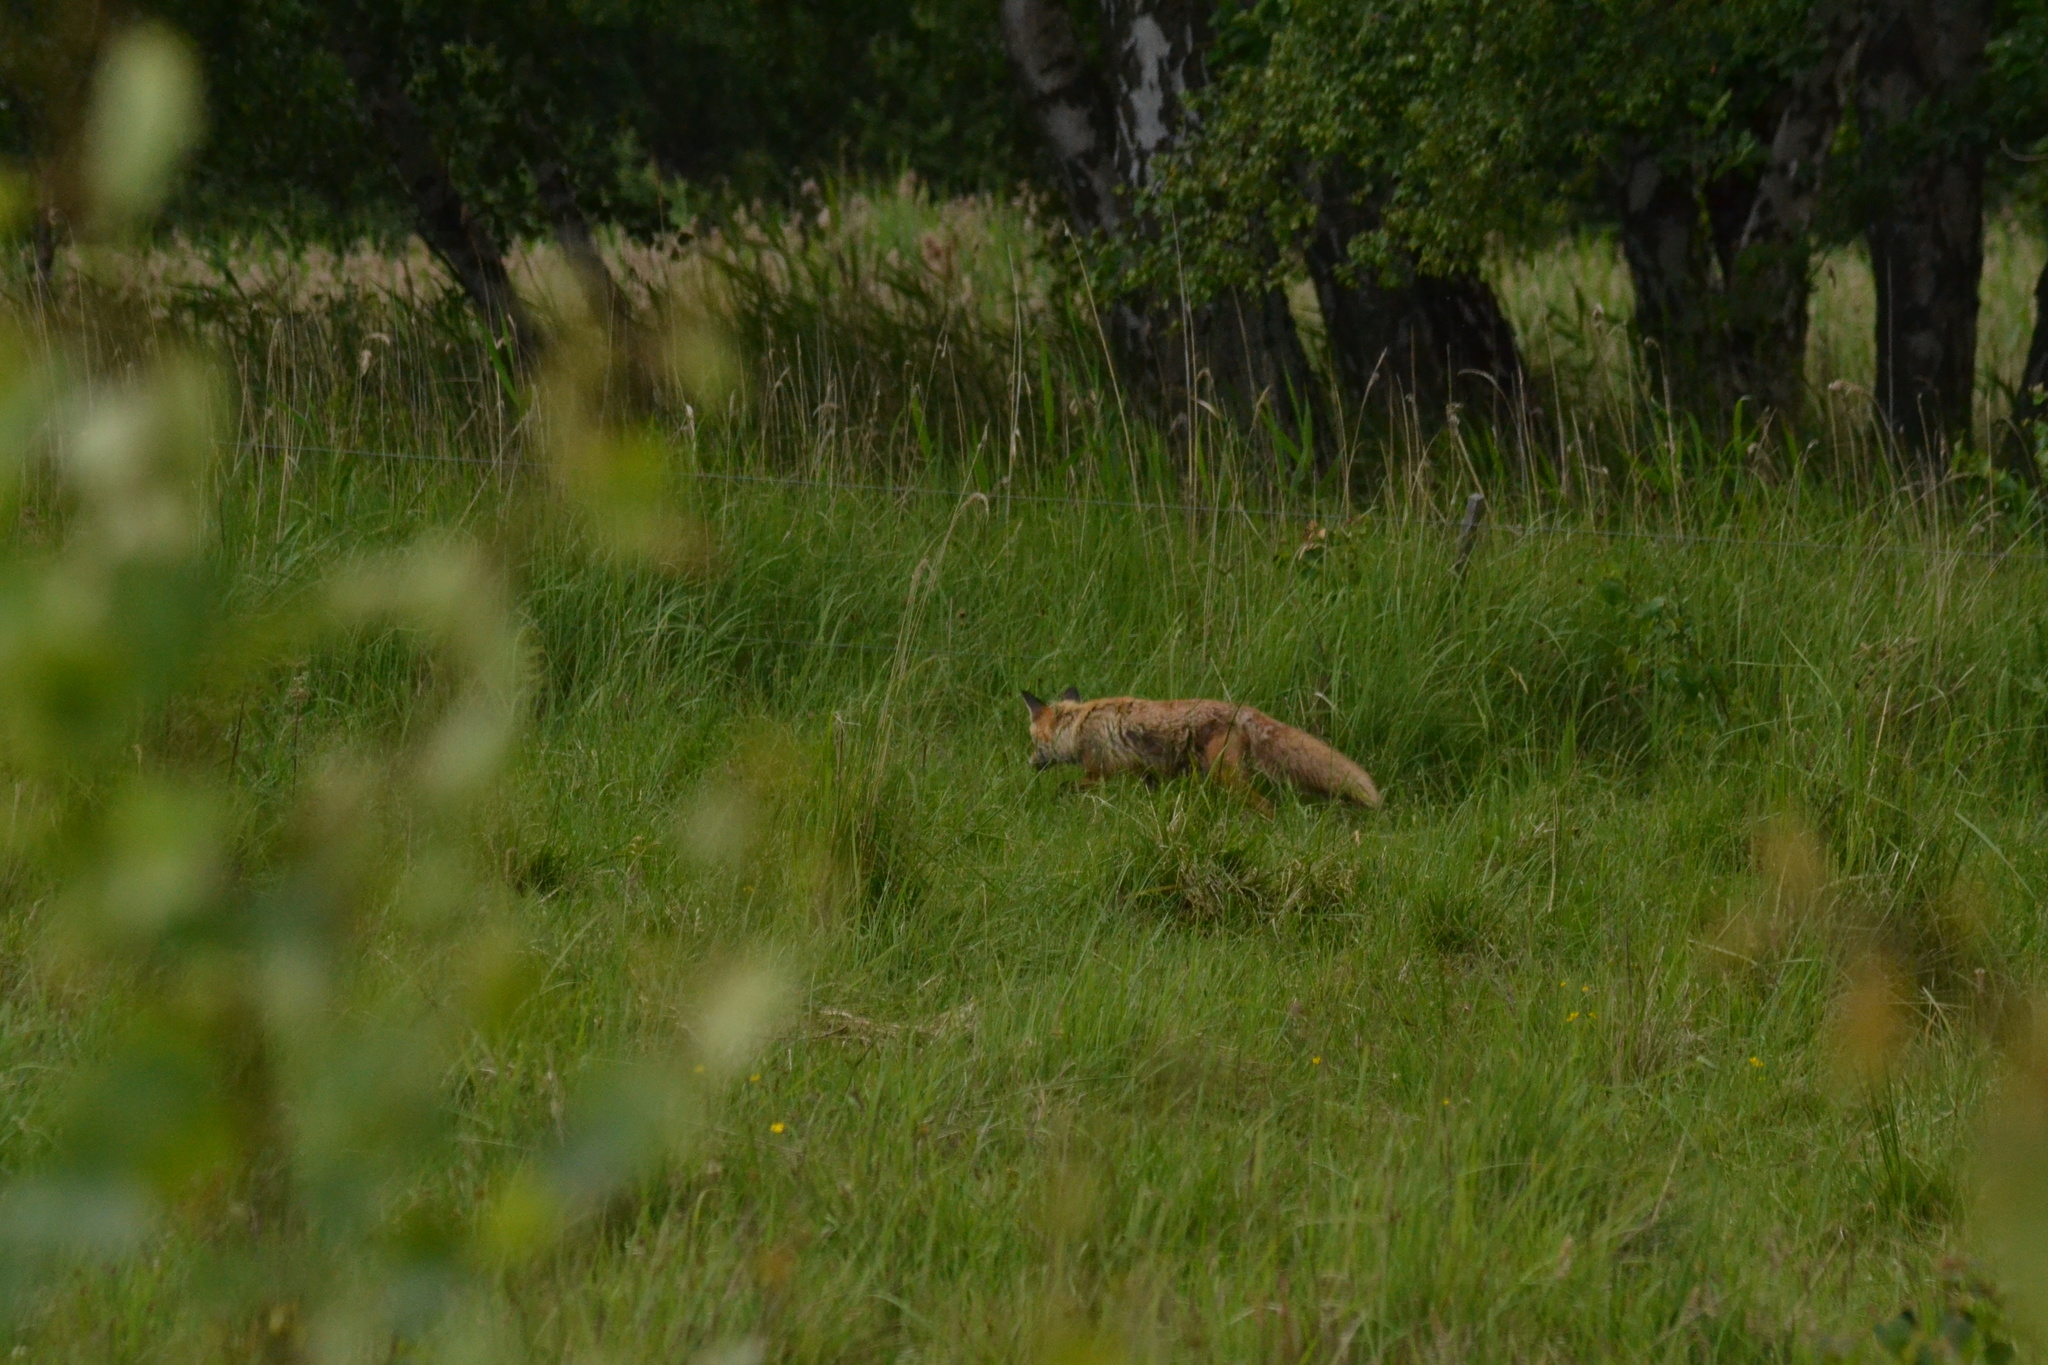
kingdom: Animalia
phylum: Chordata
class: Mammalia
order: Carnivora
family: Canidae
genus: Vulpes
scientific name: Vulpes vulpes
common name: Red fox
